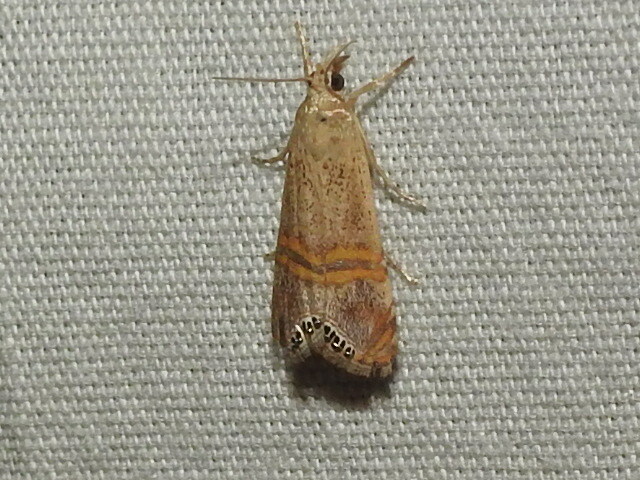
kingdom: Animalia
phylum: Arthropoda
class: Insecta
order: Lepidoptera
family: Crambidae
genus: Euchromius
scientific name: Euchromius ocellea
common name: Necklace veneer moth
